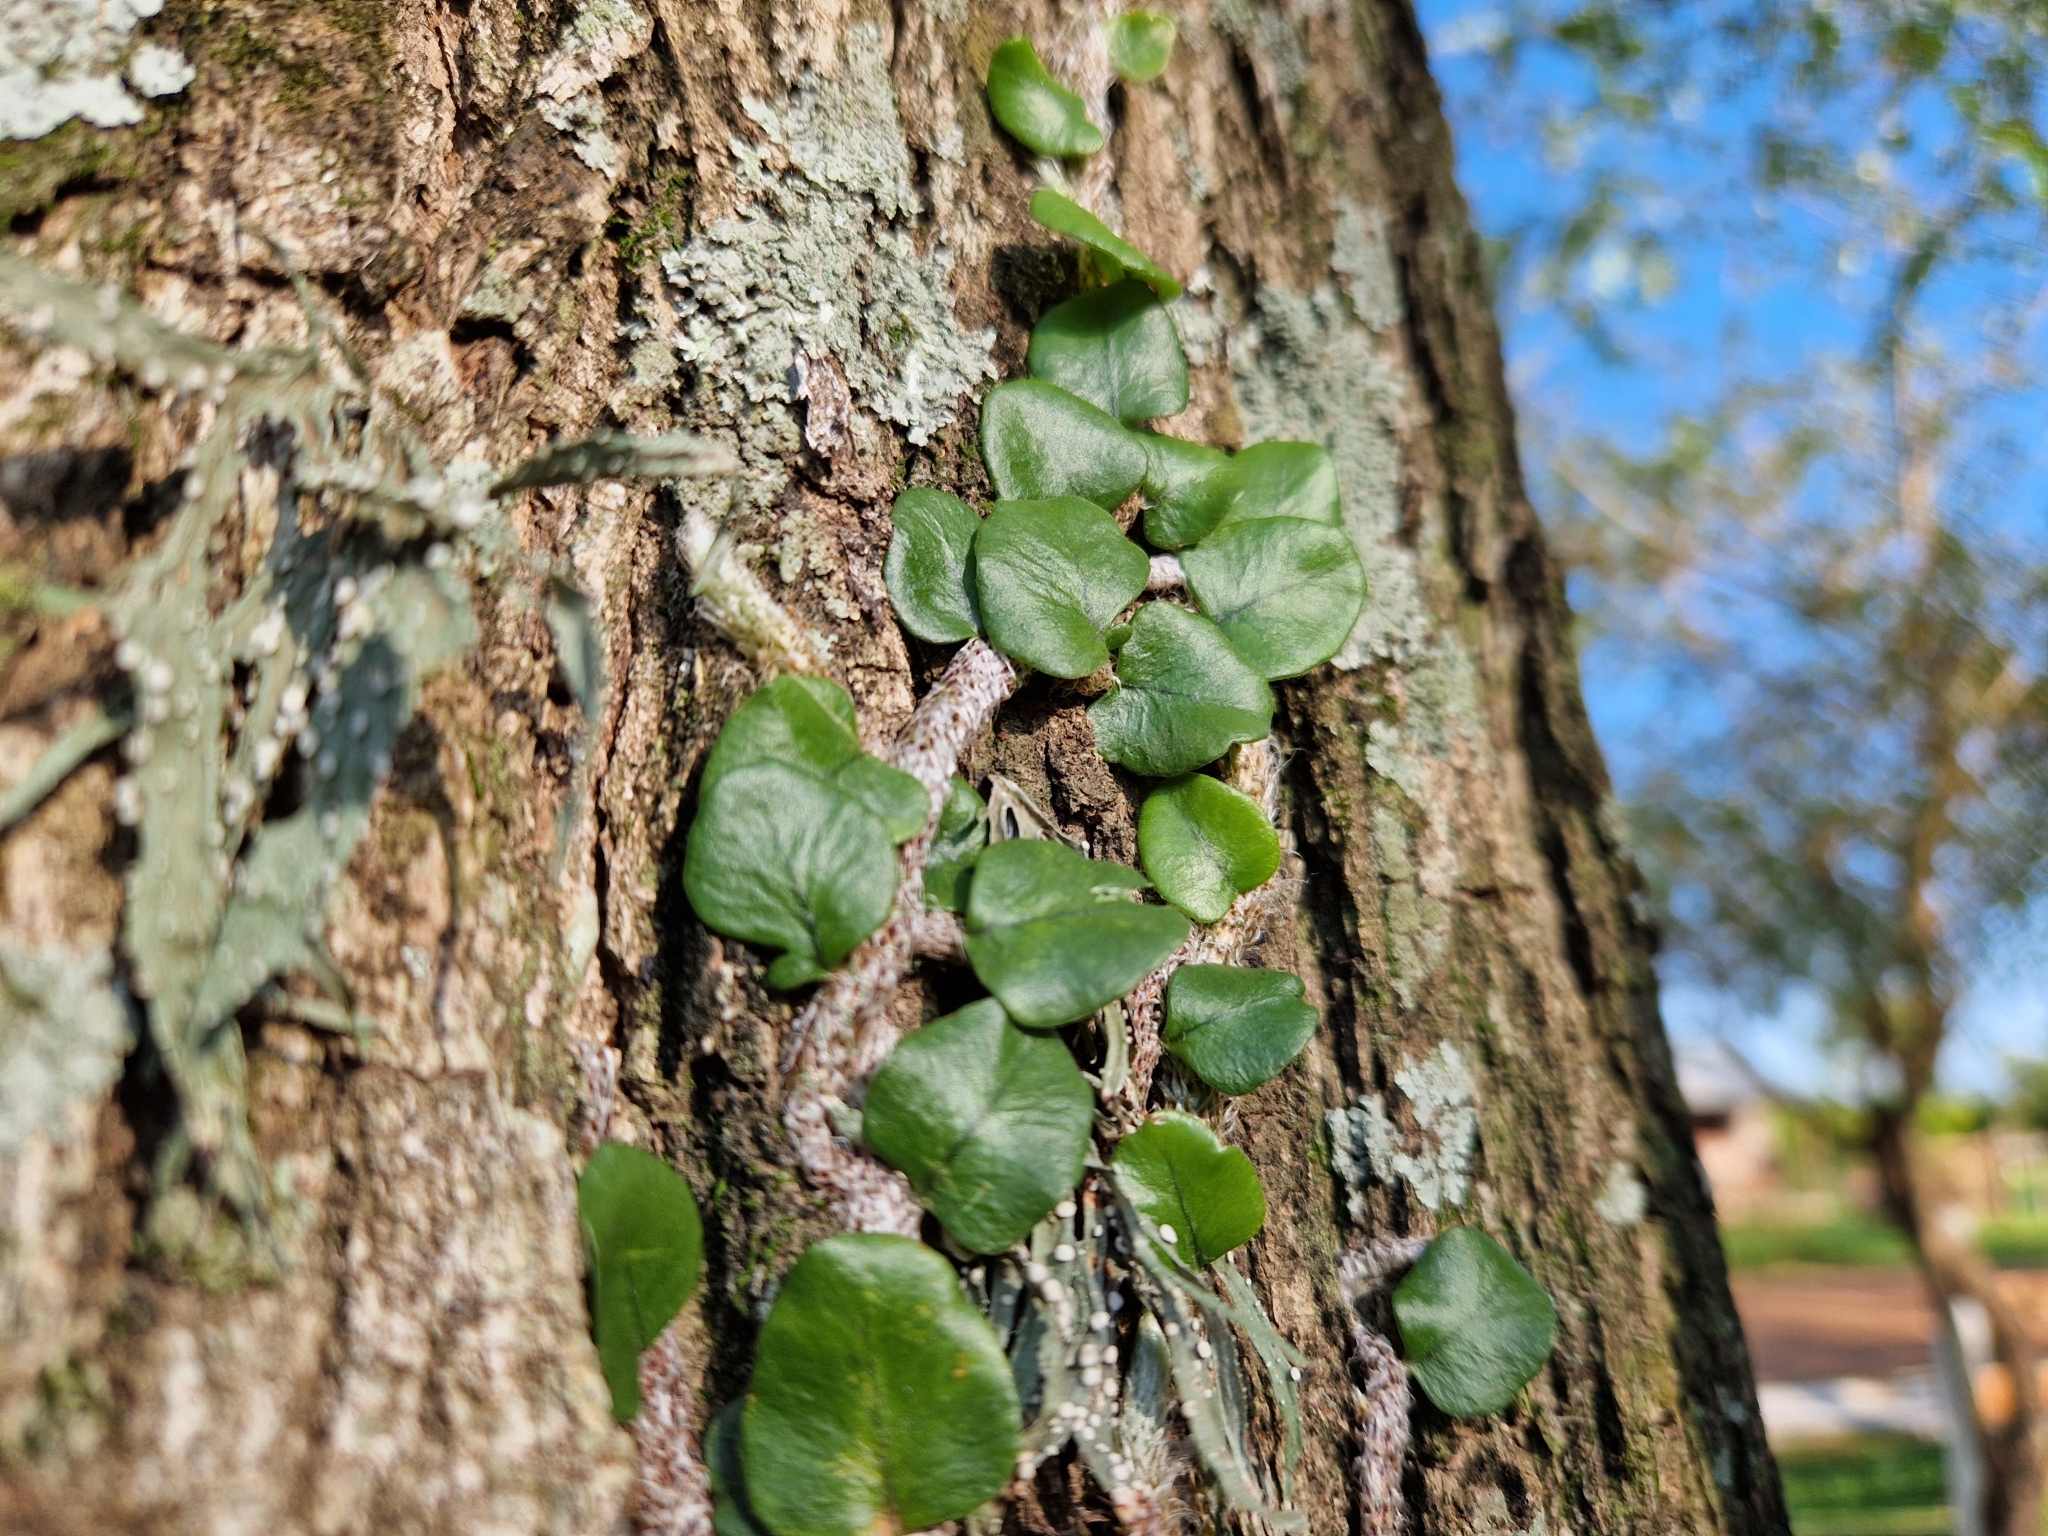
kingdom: Plantae
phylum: Tracheophyta
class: Polypodiopsida
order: Polypodiales
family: Polypodiaceae
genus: Microgramma
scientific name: Microgramma vaccinifolia
